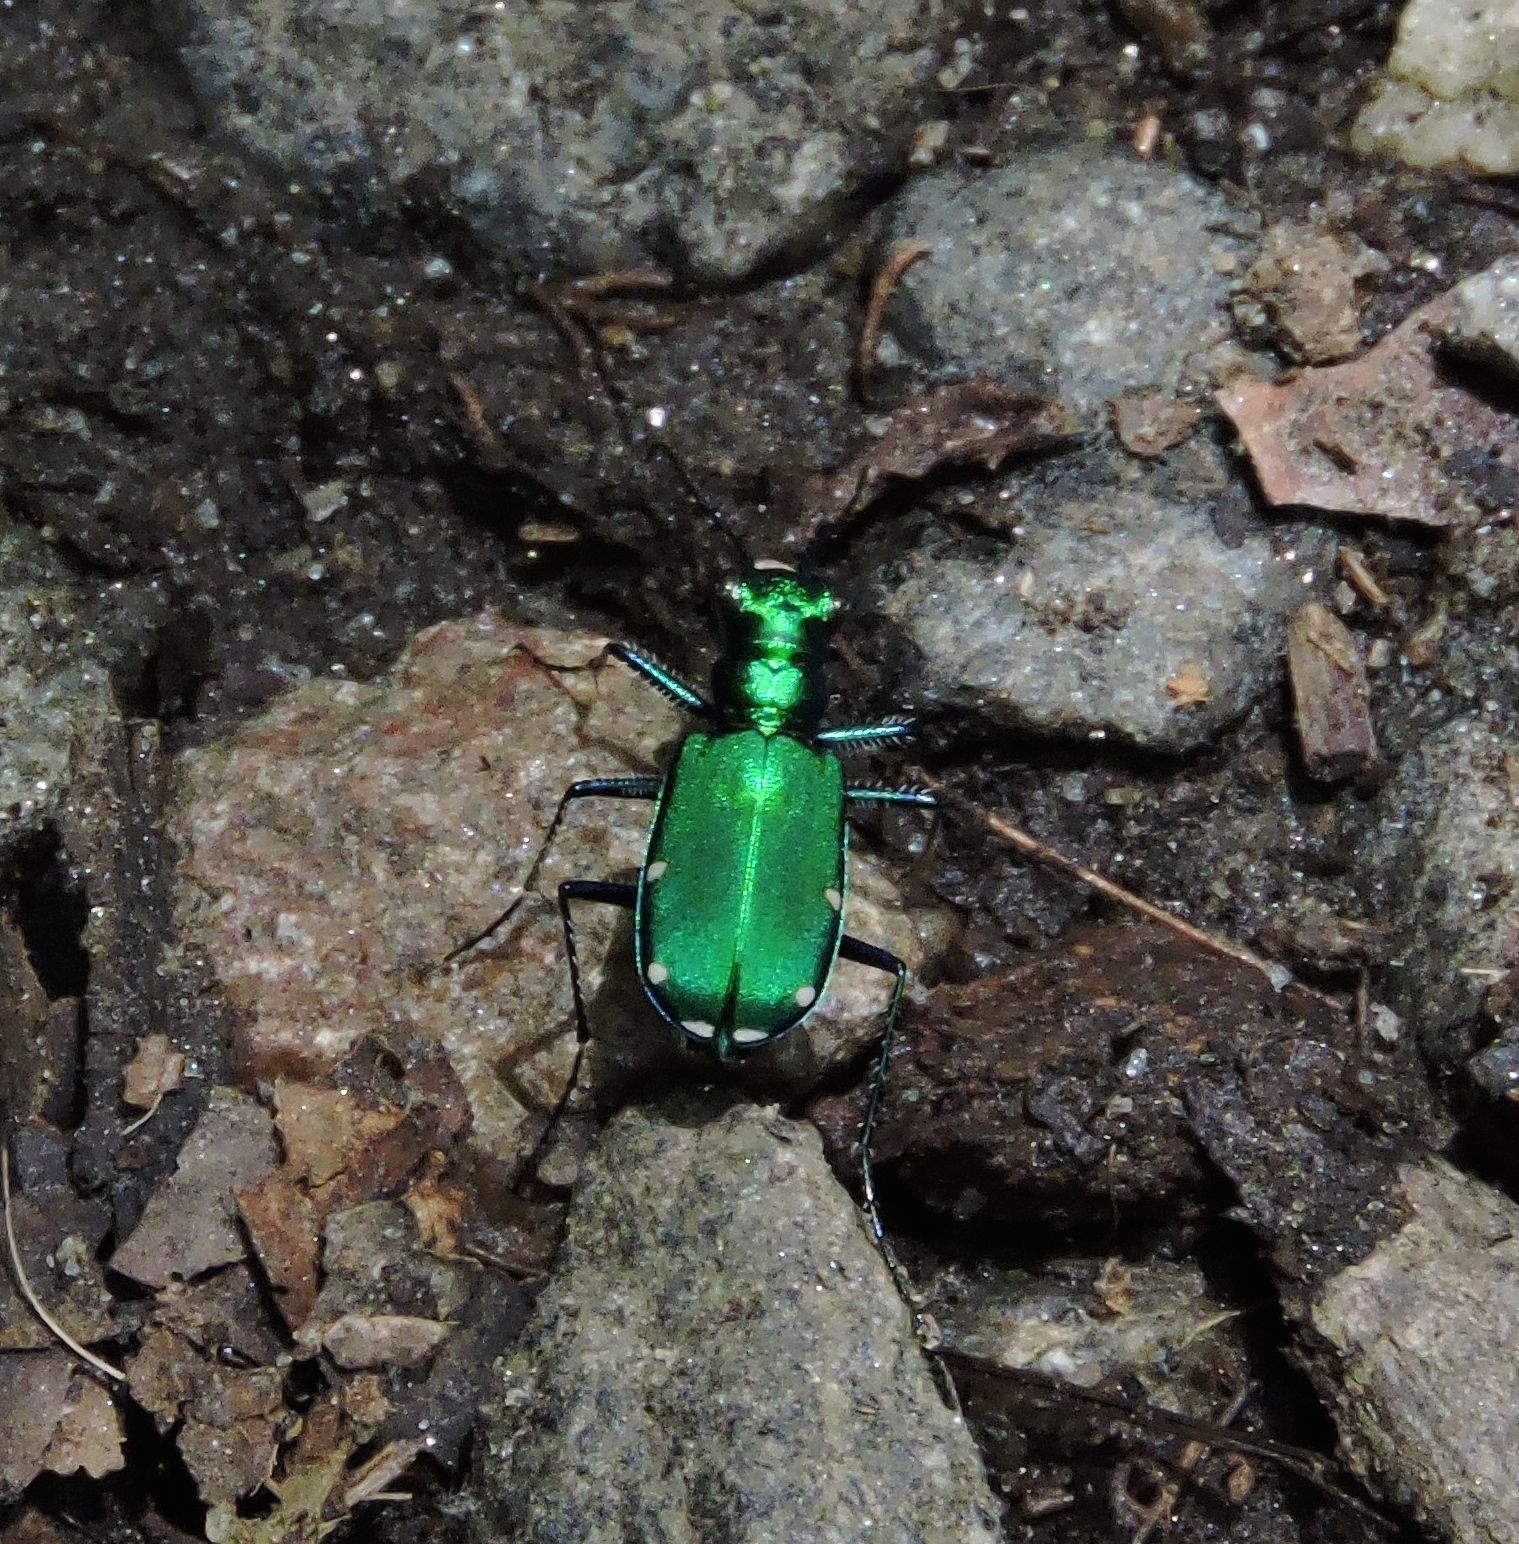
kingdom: Animalia
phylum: Arthropoda
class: Insecta
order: Coleoptera
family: Carabidae
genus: Cicindela
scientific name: Cicindela sexguttata
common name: Six-spotted tiger beetle
